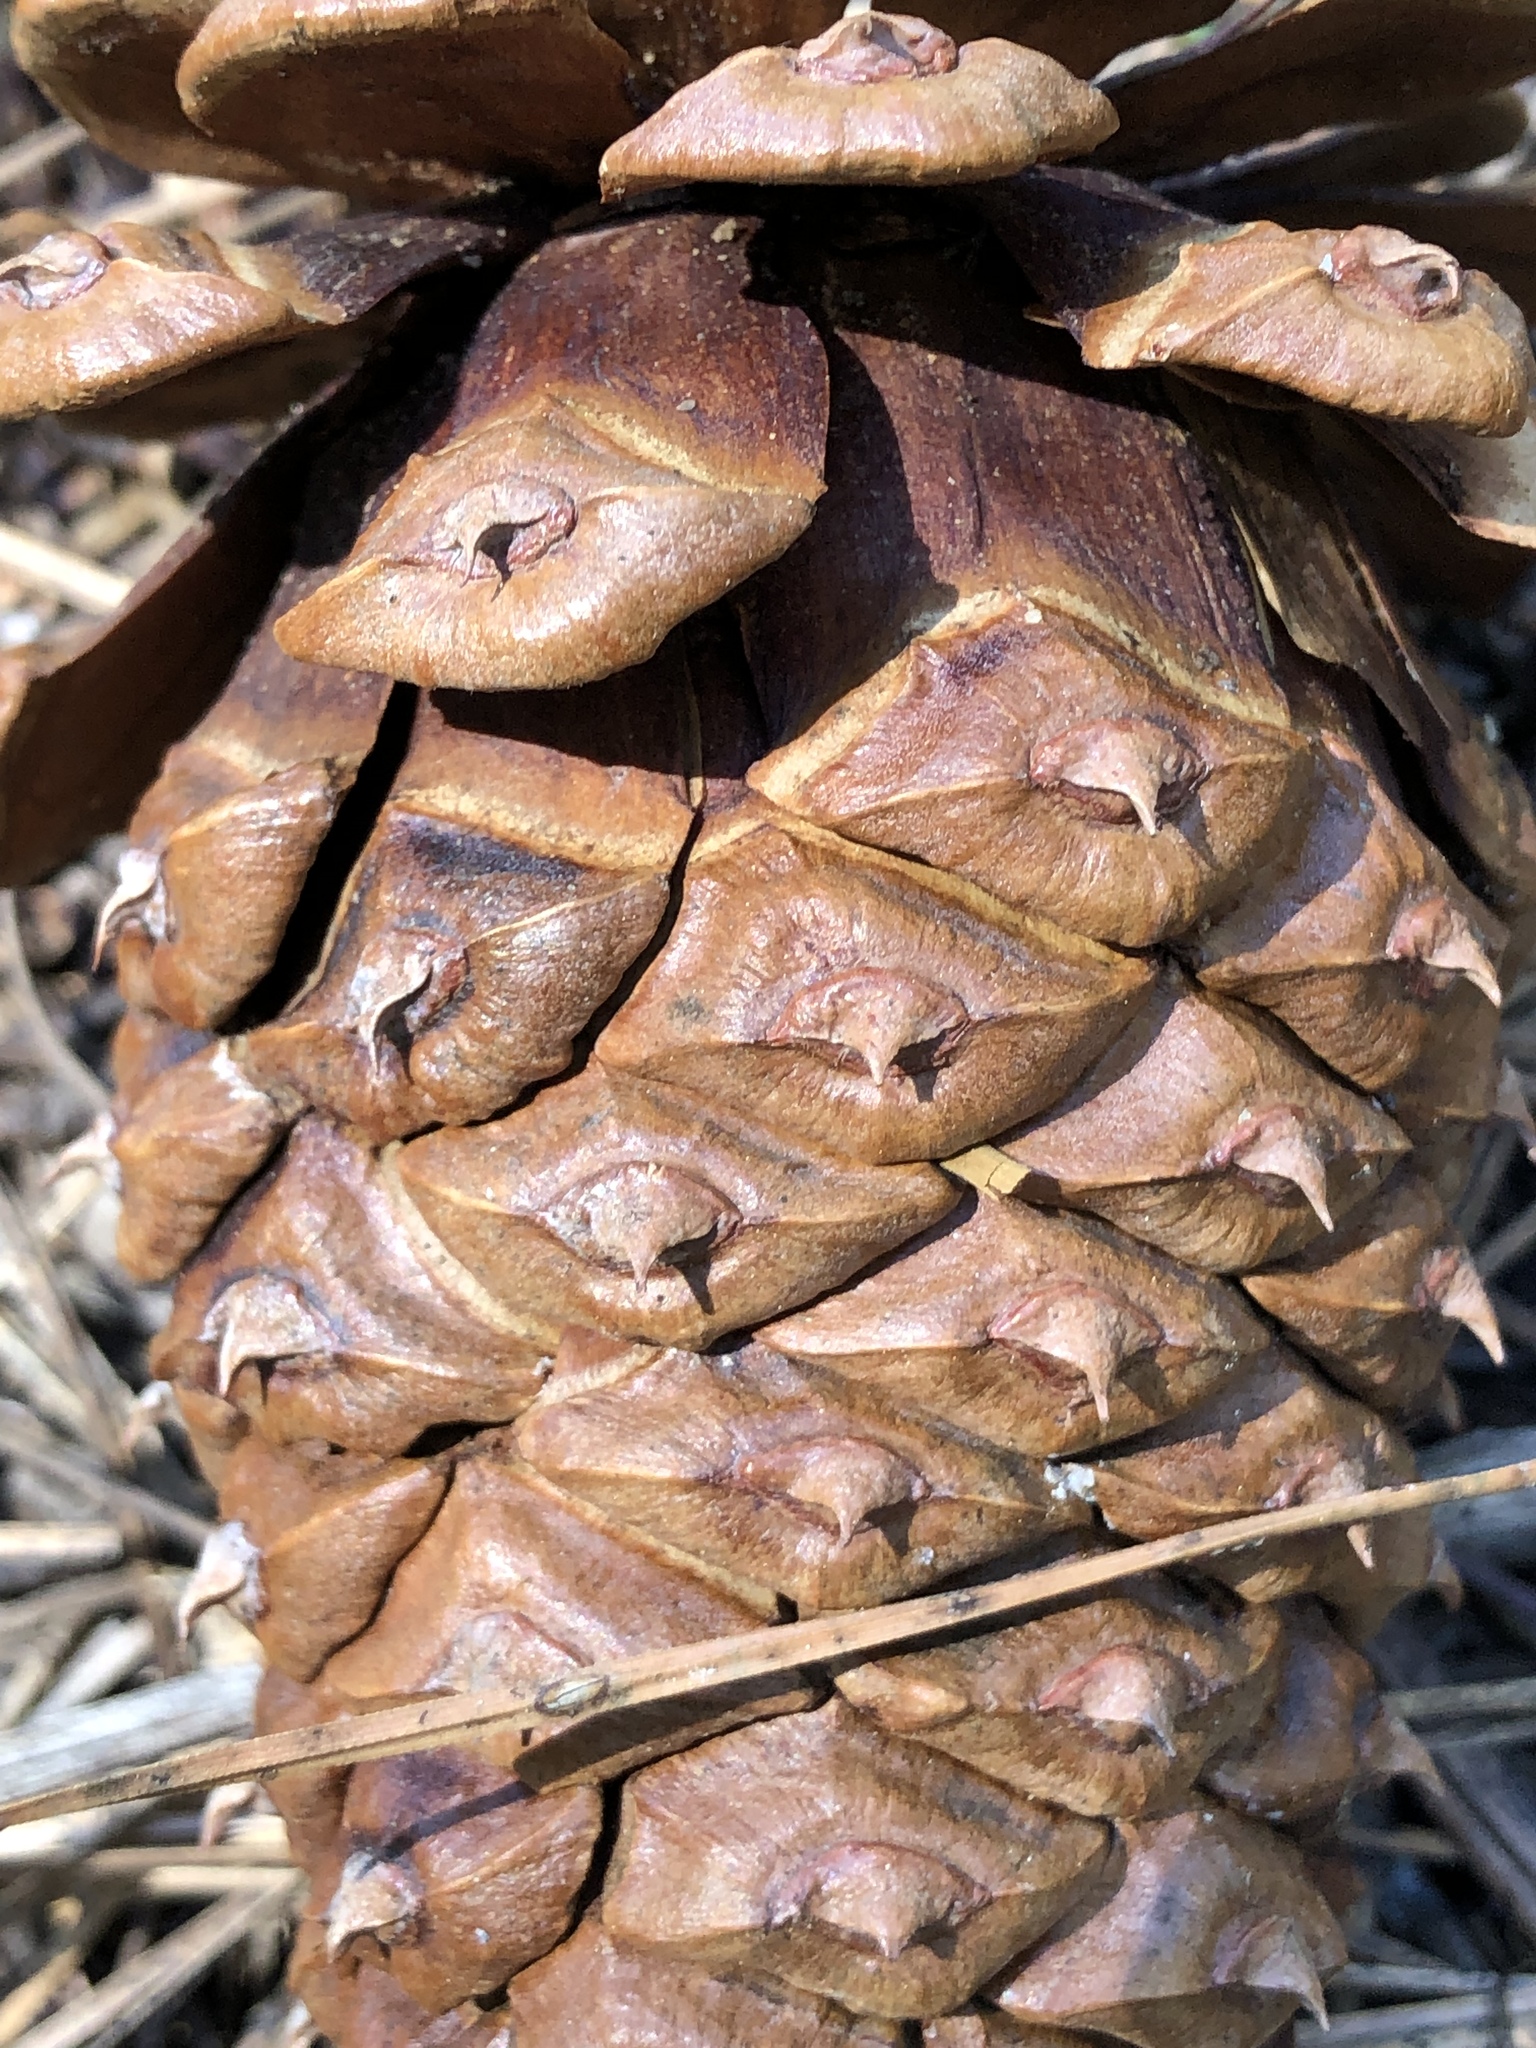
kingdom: Plantae
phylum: Tracheophyta
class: Pinopsida
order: Pinales
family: Pinaceae
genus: Pinus
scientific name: Pinus ponderosa
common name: Western yellow-pine
